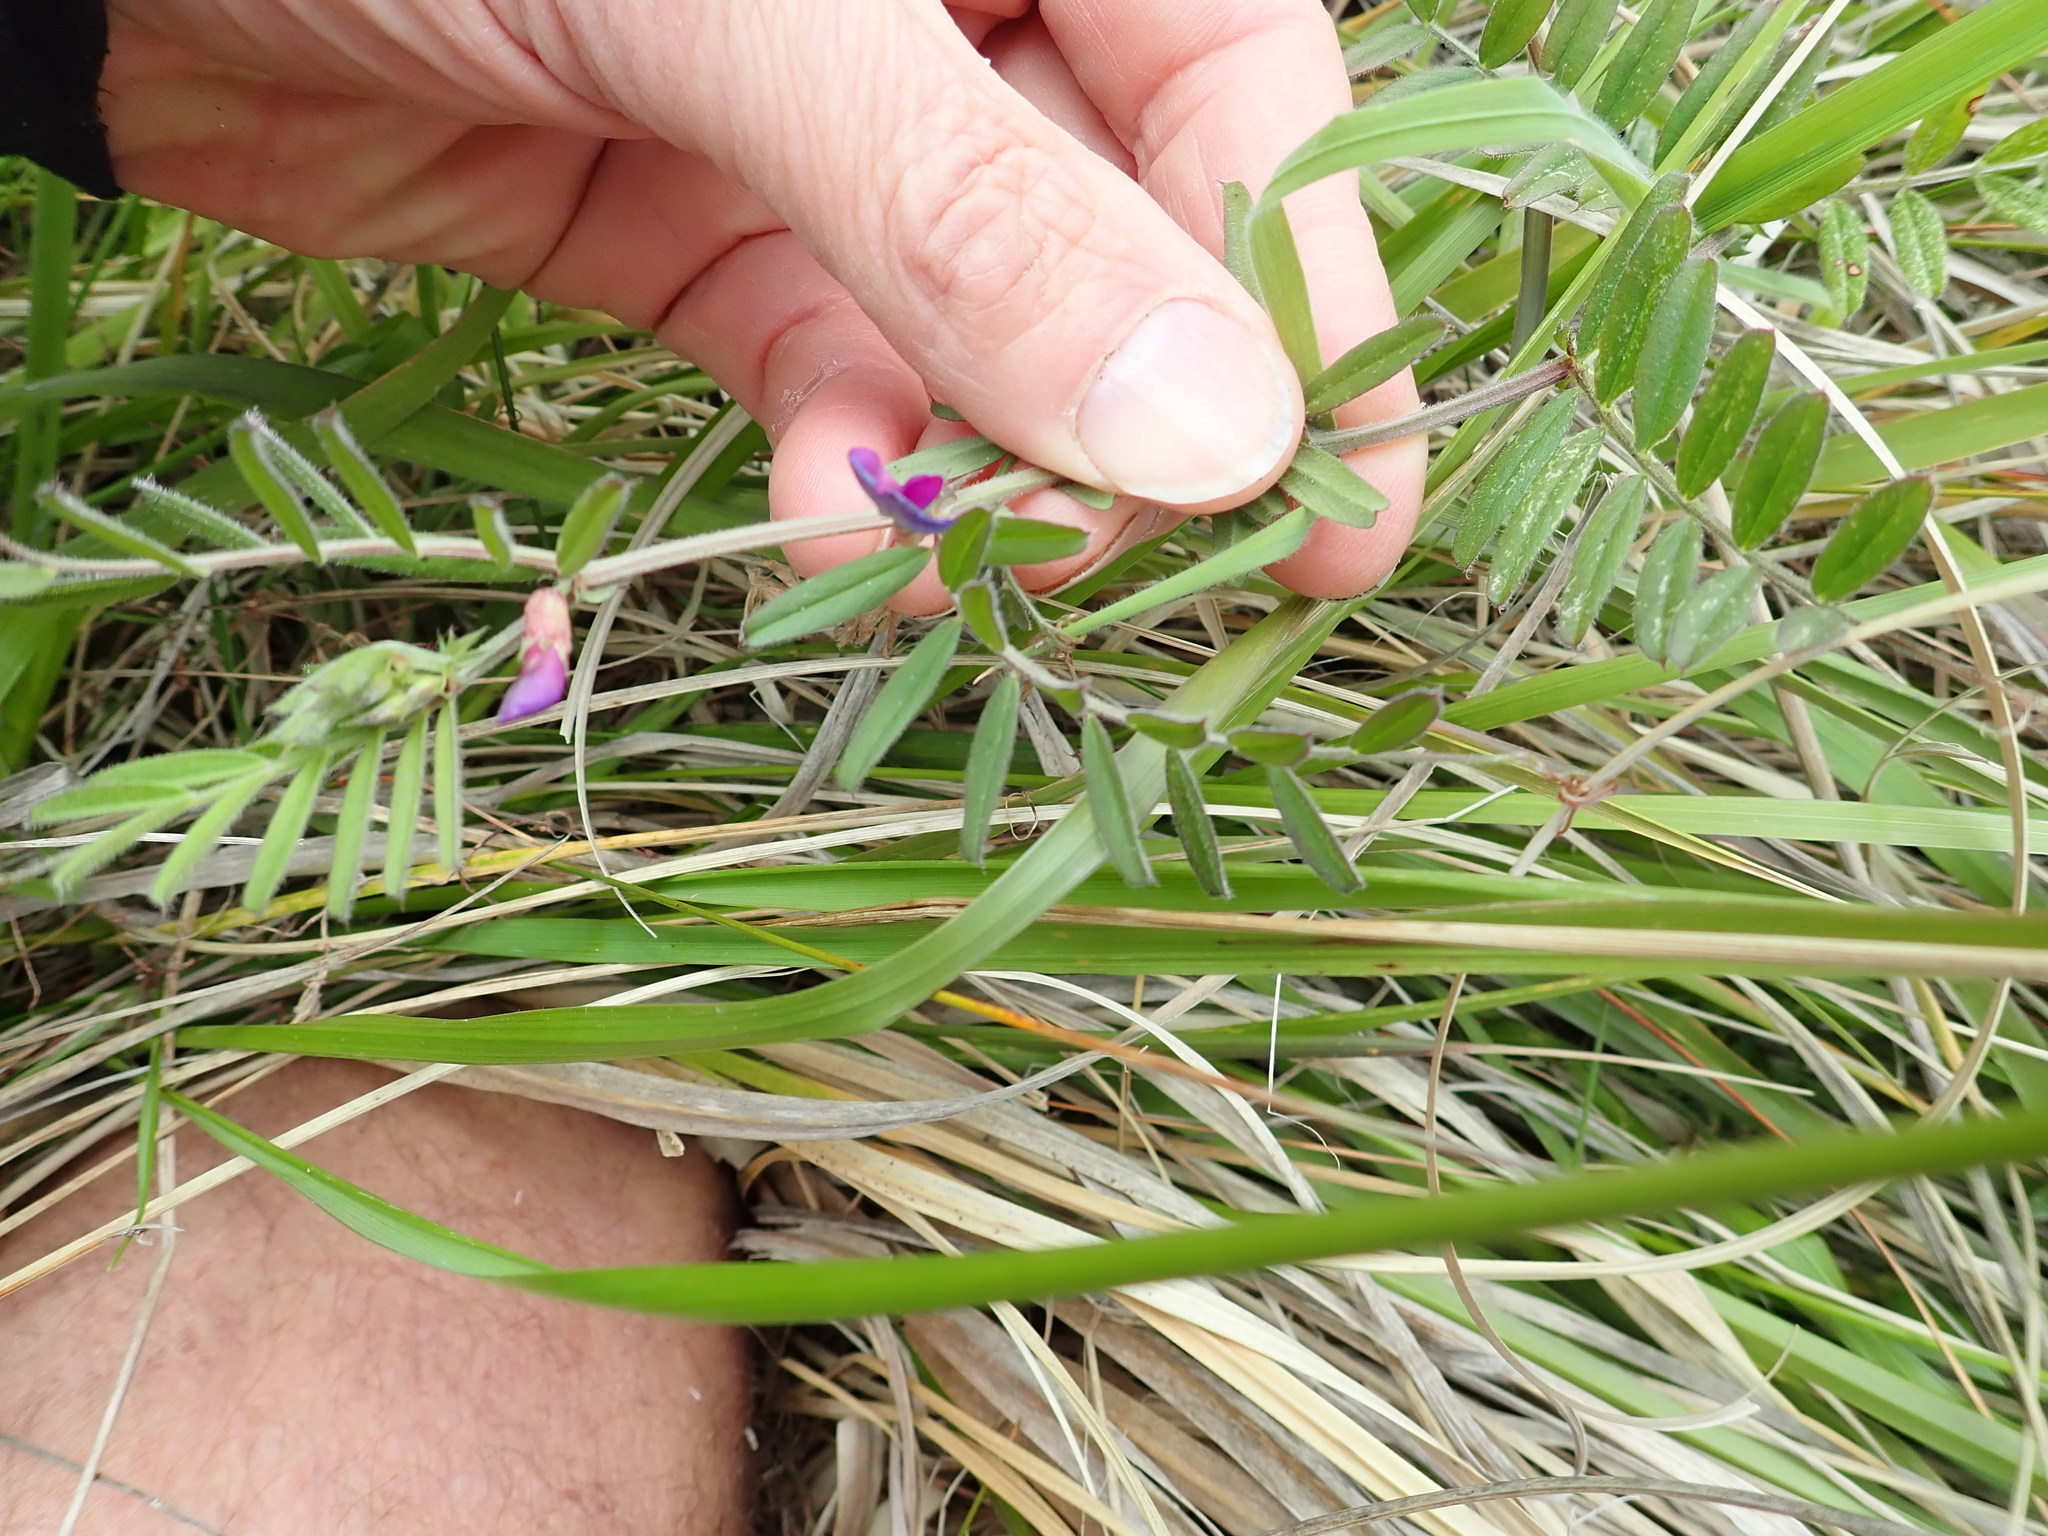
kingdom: Plantae
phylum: Tracheophyta
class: Magnoliopsida
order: Fabales
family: Fabaceae
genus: Vicia
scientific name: Vicia sativa
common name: Garden vetch
